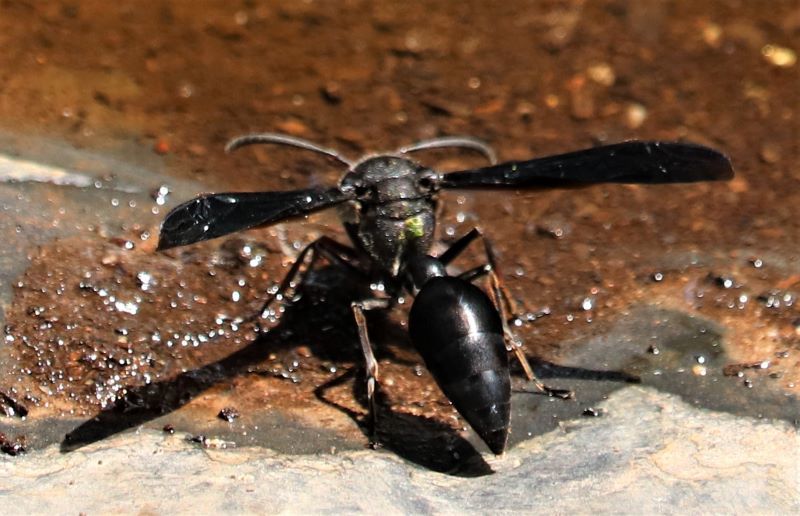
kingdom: Animalia
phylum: Arthropoda
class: Insecta
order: Hymenoptera
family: Eumenidae
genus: Delta
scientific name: Delta bonellii
